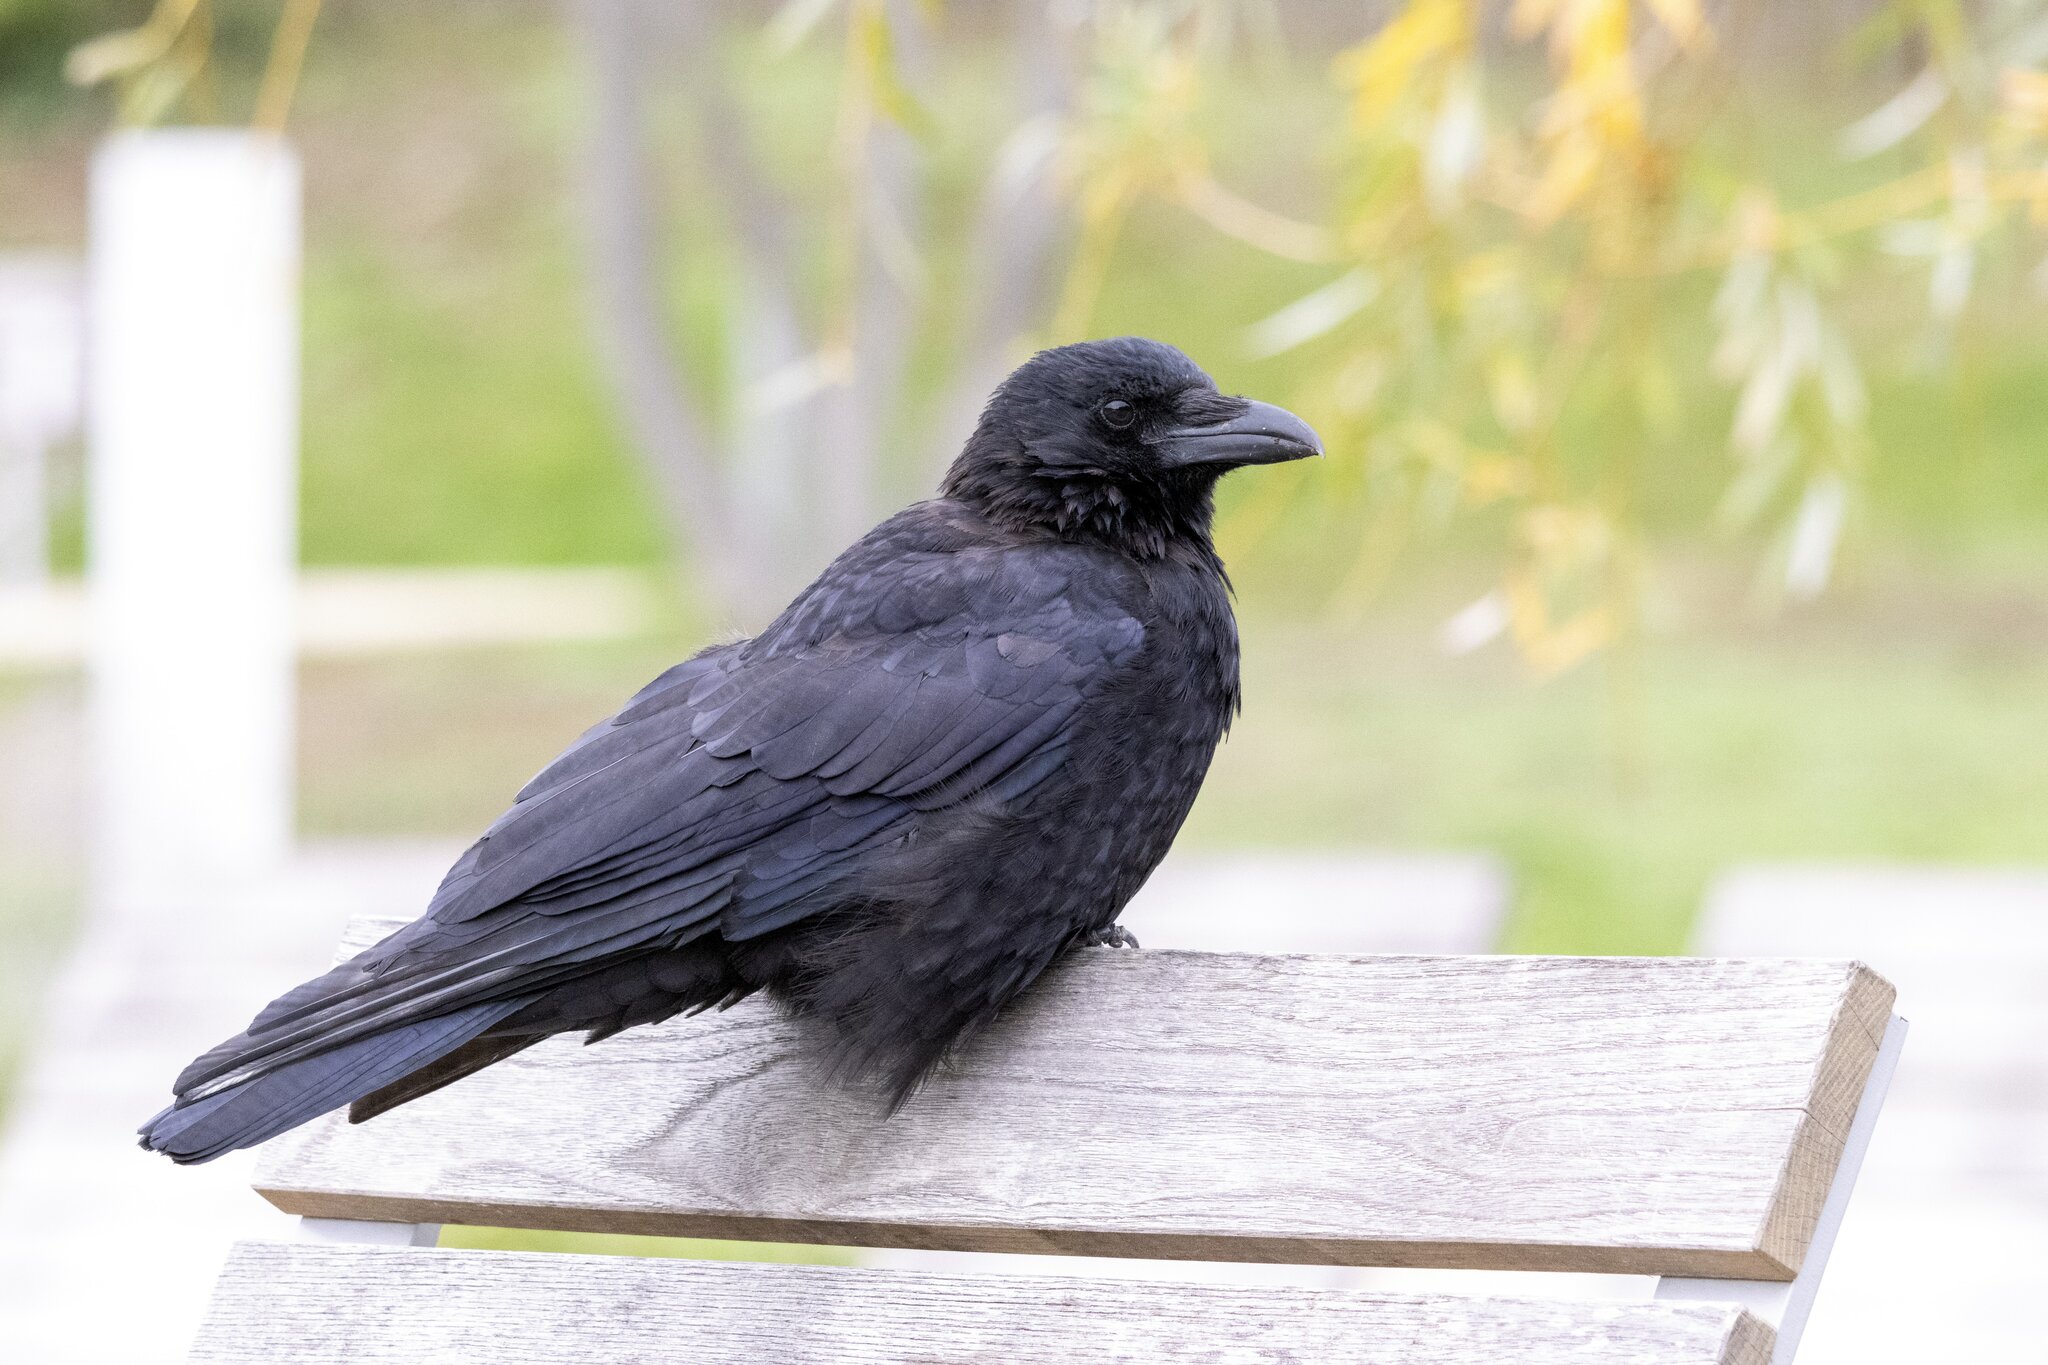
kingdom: Animalia
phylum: Chordata
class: Aves
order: Passeriformes
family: Corvidae
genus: Corvus
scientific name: Corvus corone
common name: Carrion crow
